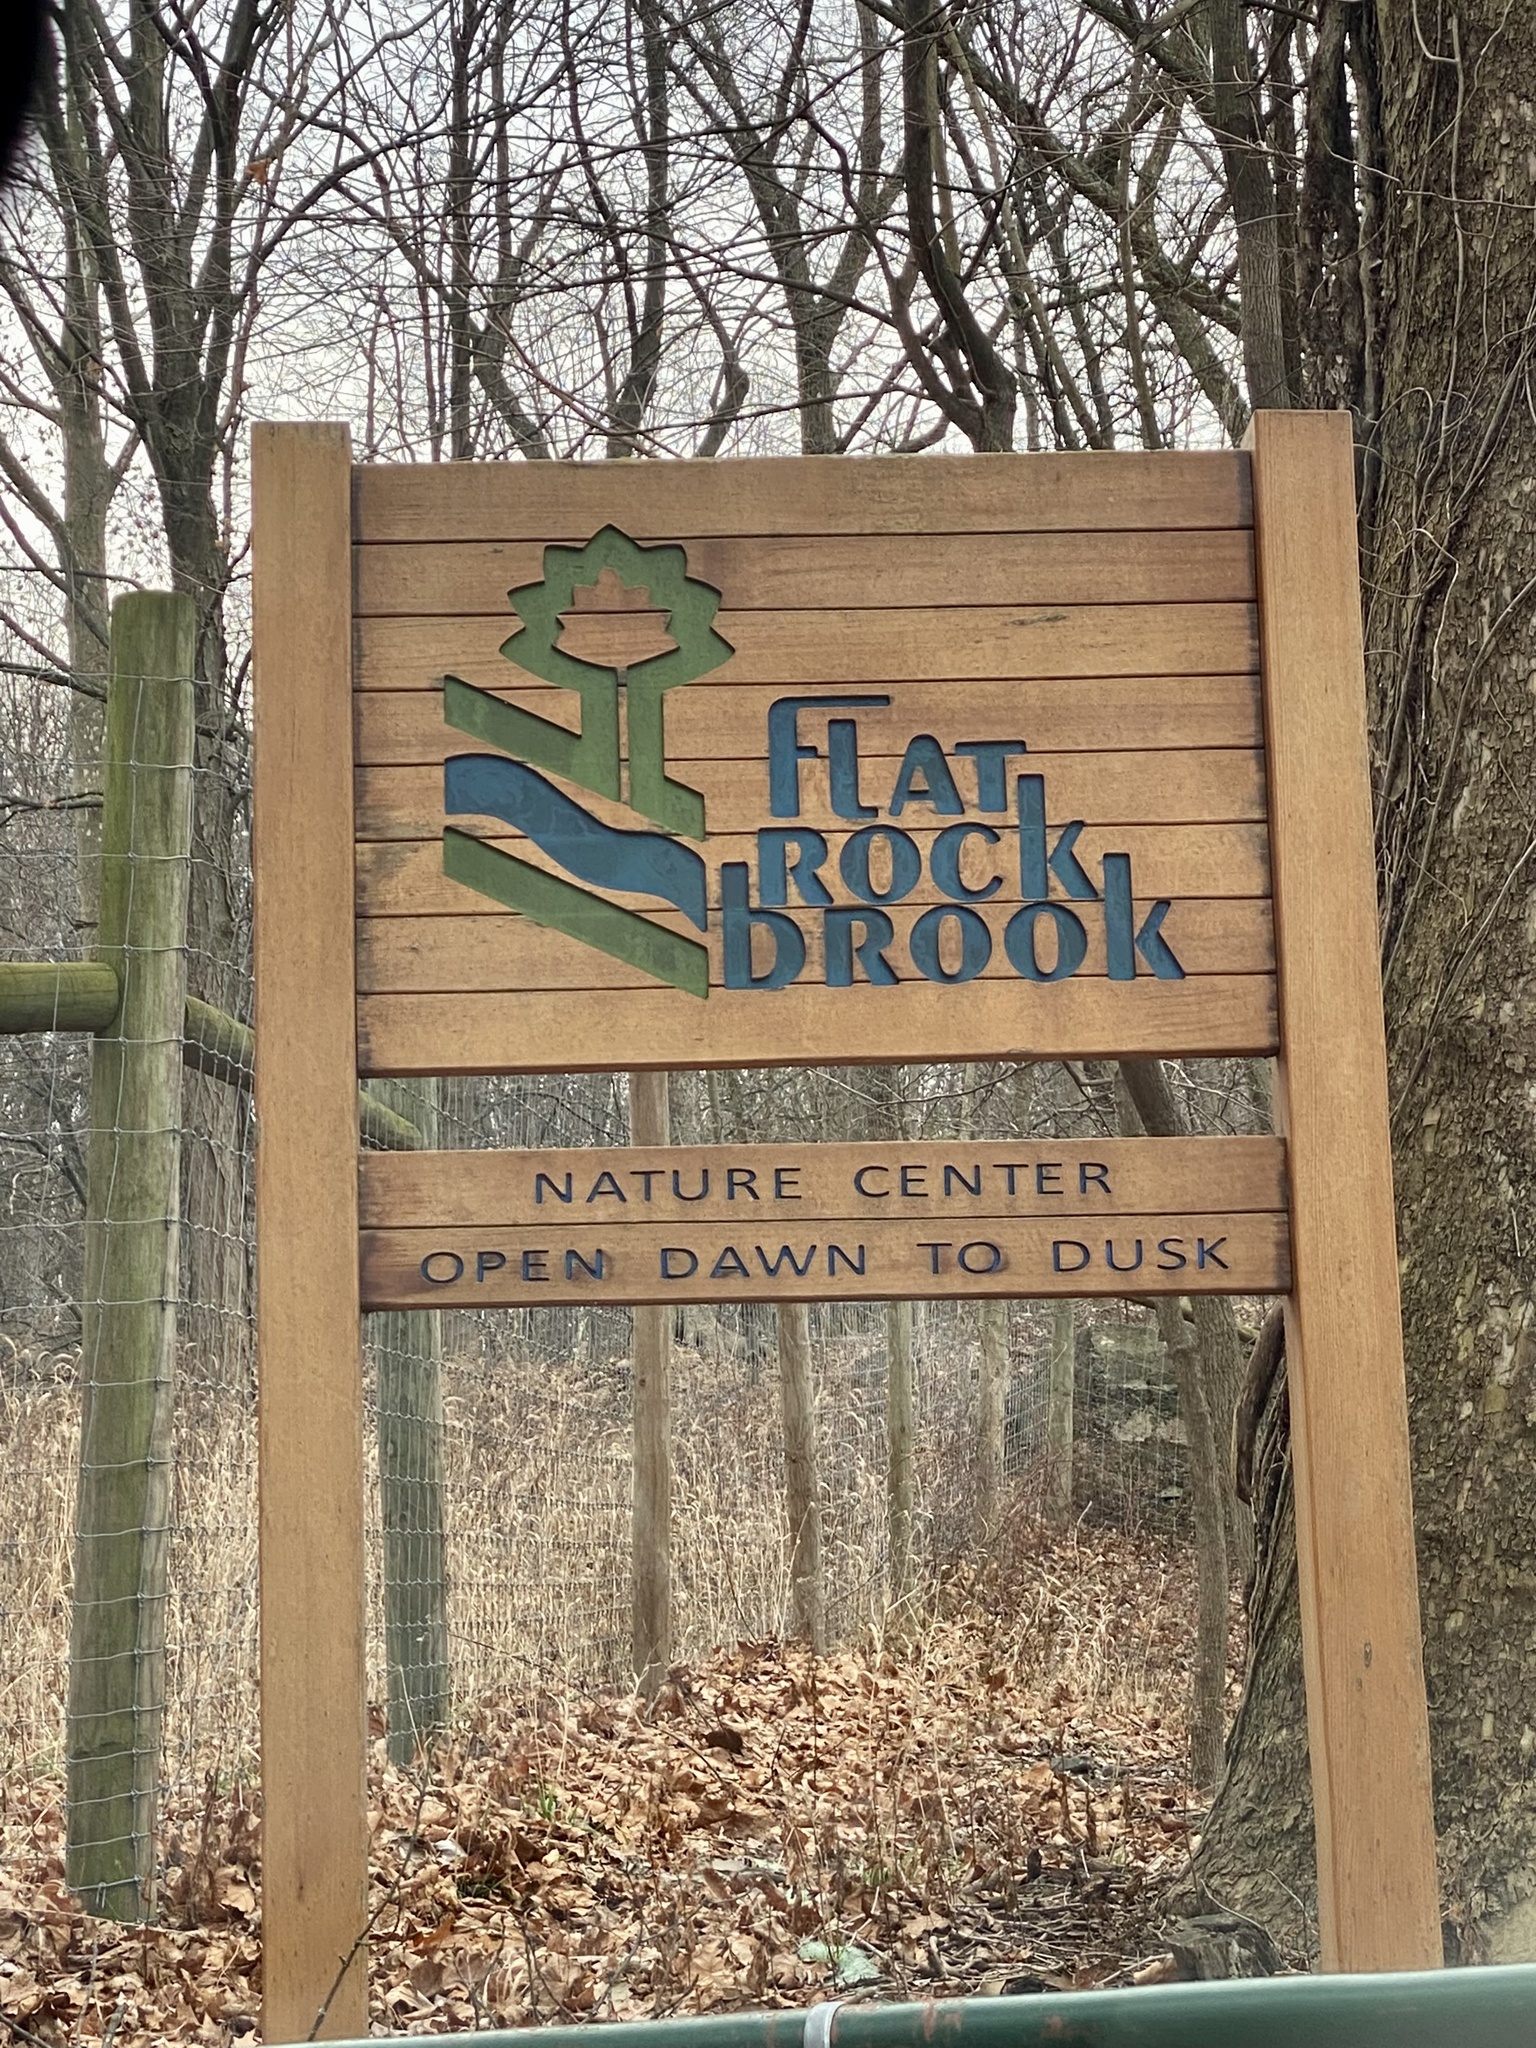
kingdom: Plantae
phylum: Tracheophyta
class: Magnoliopsida
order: Malvales
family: Malvaceae
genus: Malva
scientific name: Malva neglecta
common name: Common mallow
